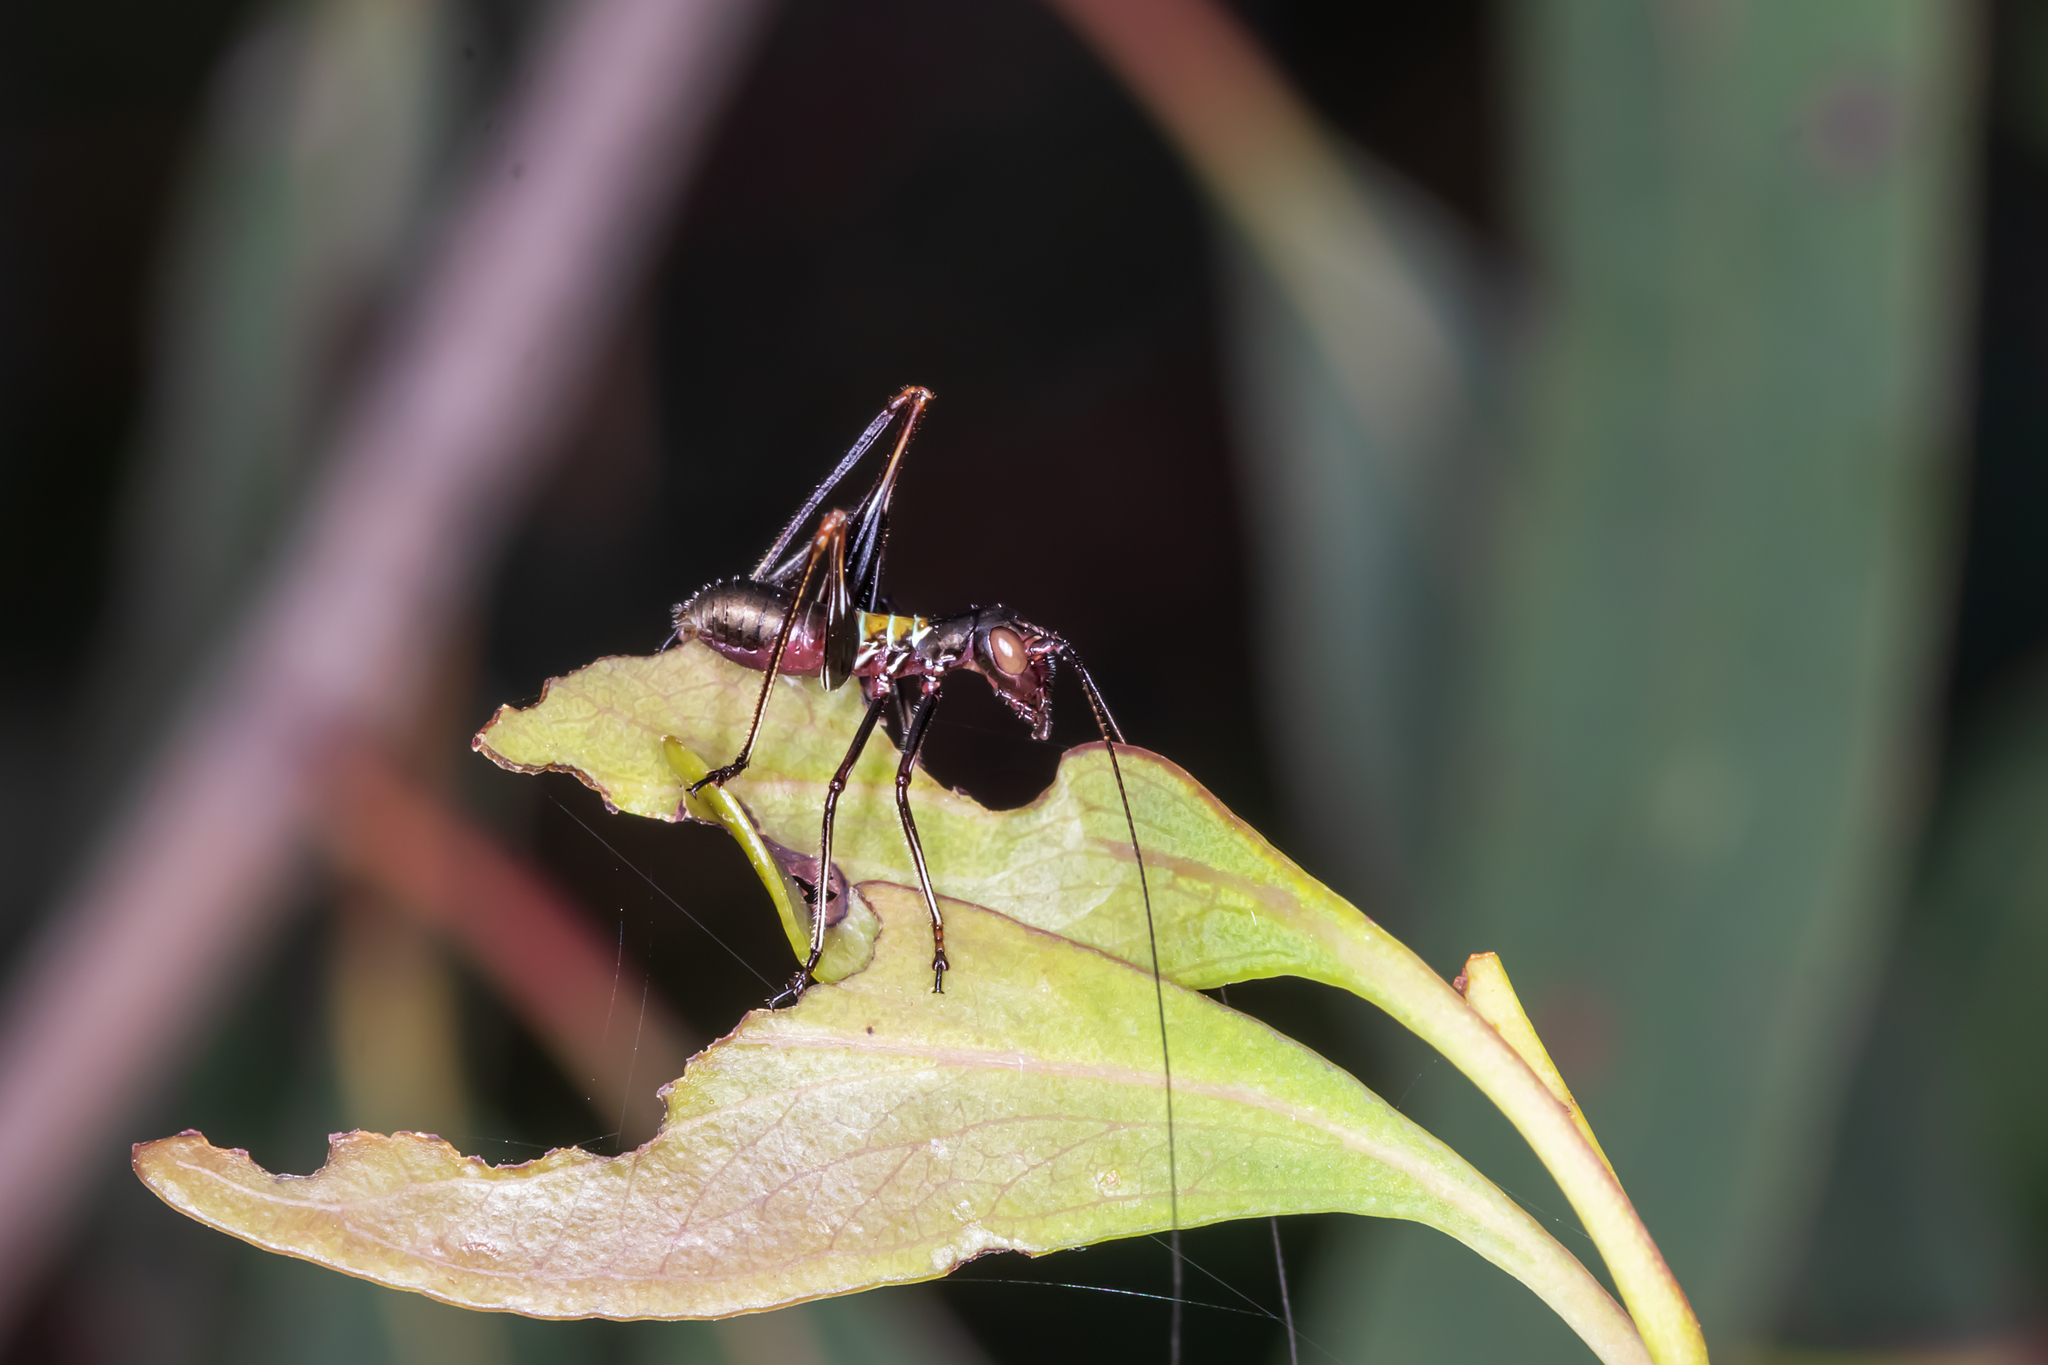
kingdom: Animalia
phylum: Arthropoda
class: Insecta
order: Orthoptera
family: Tettigoniidae
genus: Torbia
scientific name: Torbia perficita
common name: Giant torbia
